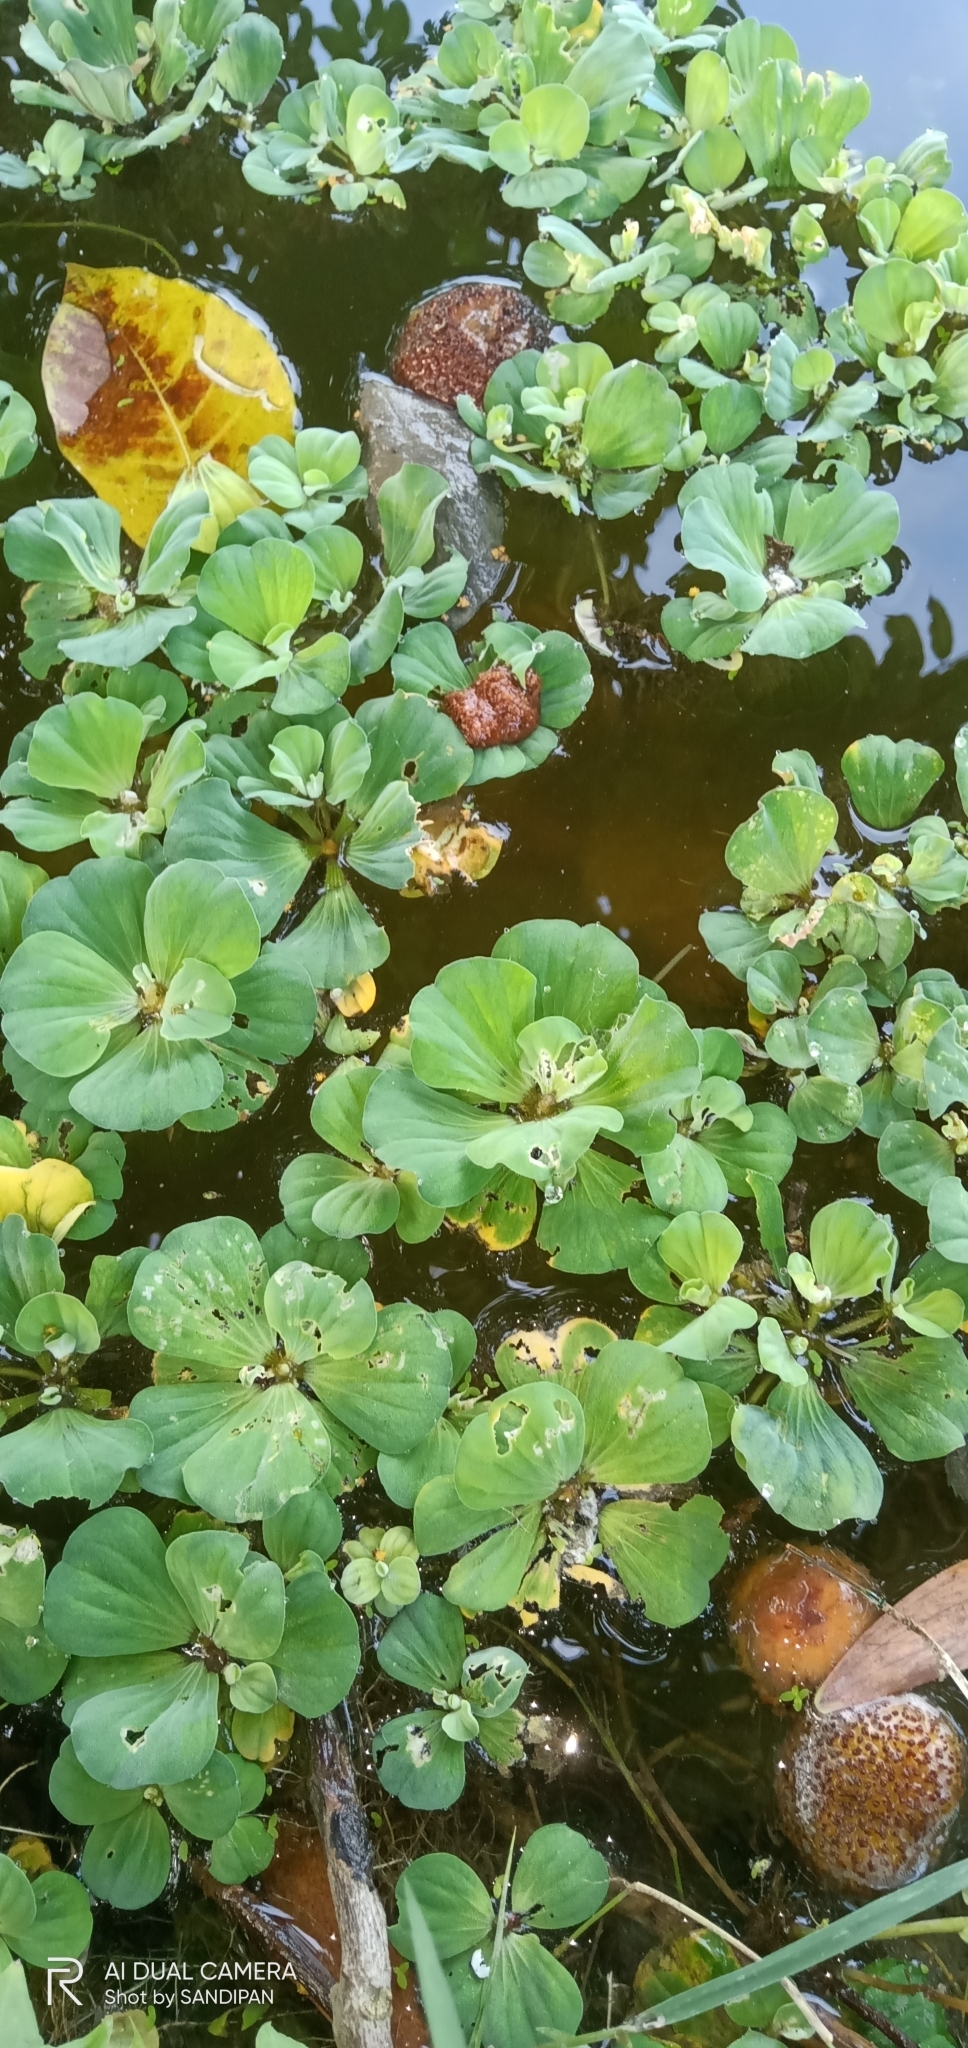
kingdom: Plantae
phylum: Tracheophyta
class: Liliopsida
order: Alismatales
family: Araceae
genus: Pistia
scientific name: Pistia stratiotes
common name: Water lettuce
